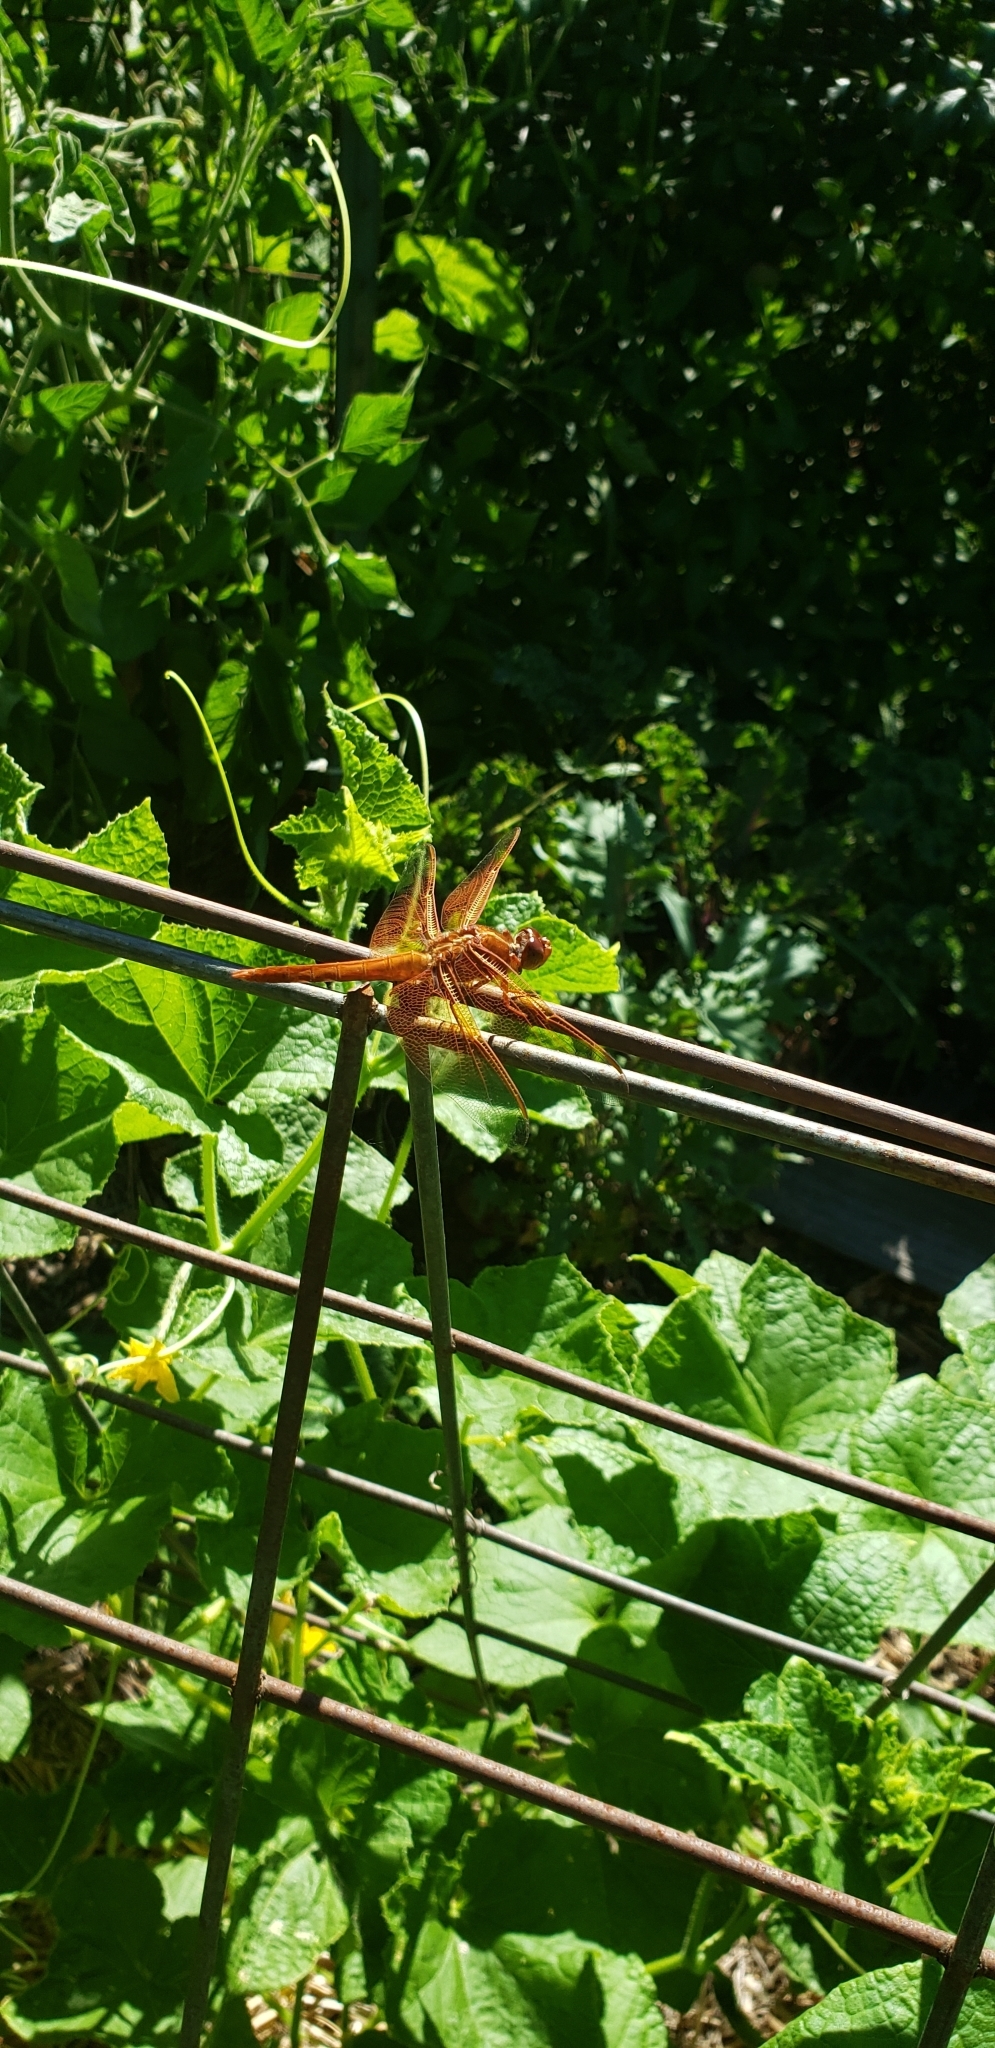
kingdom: Animalia
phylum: Arthropoda
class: Insecta
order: Odonata
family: Libellulidae
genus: Libellula
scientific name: Libellula saturata
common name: Flame skimmer
